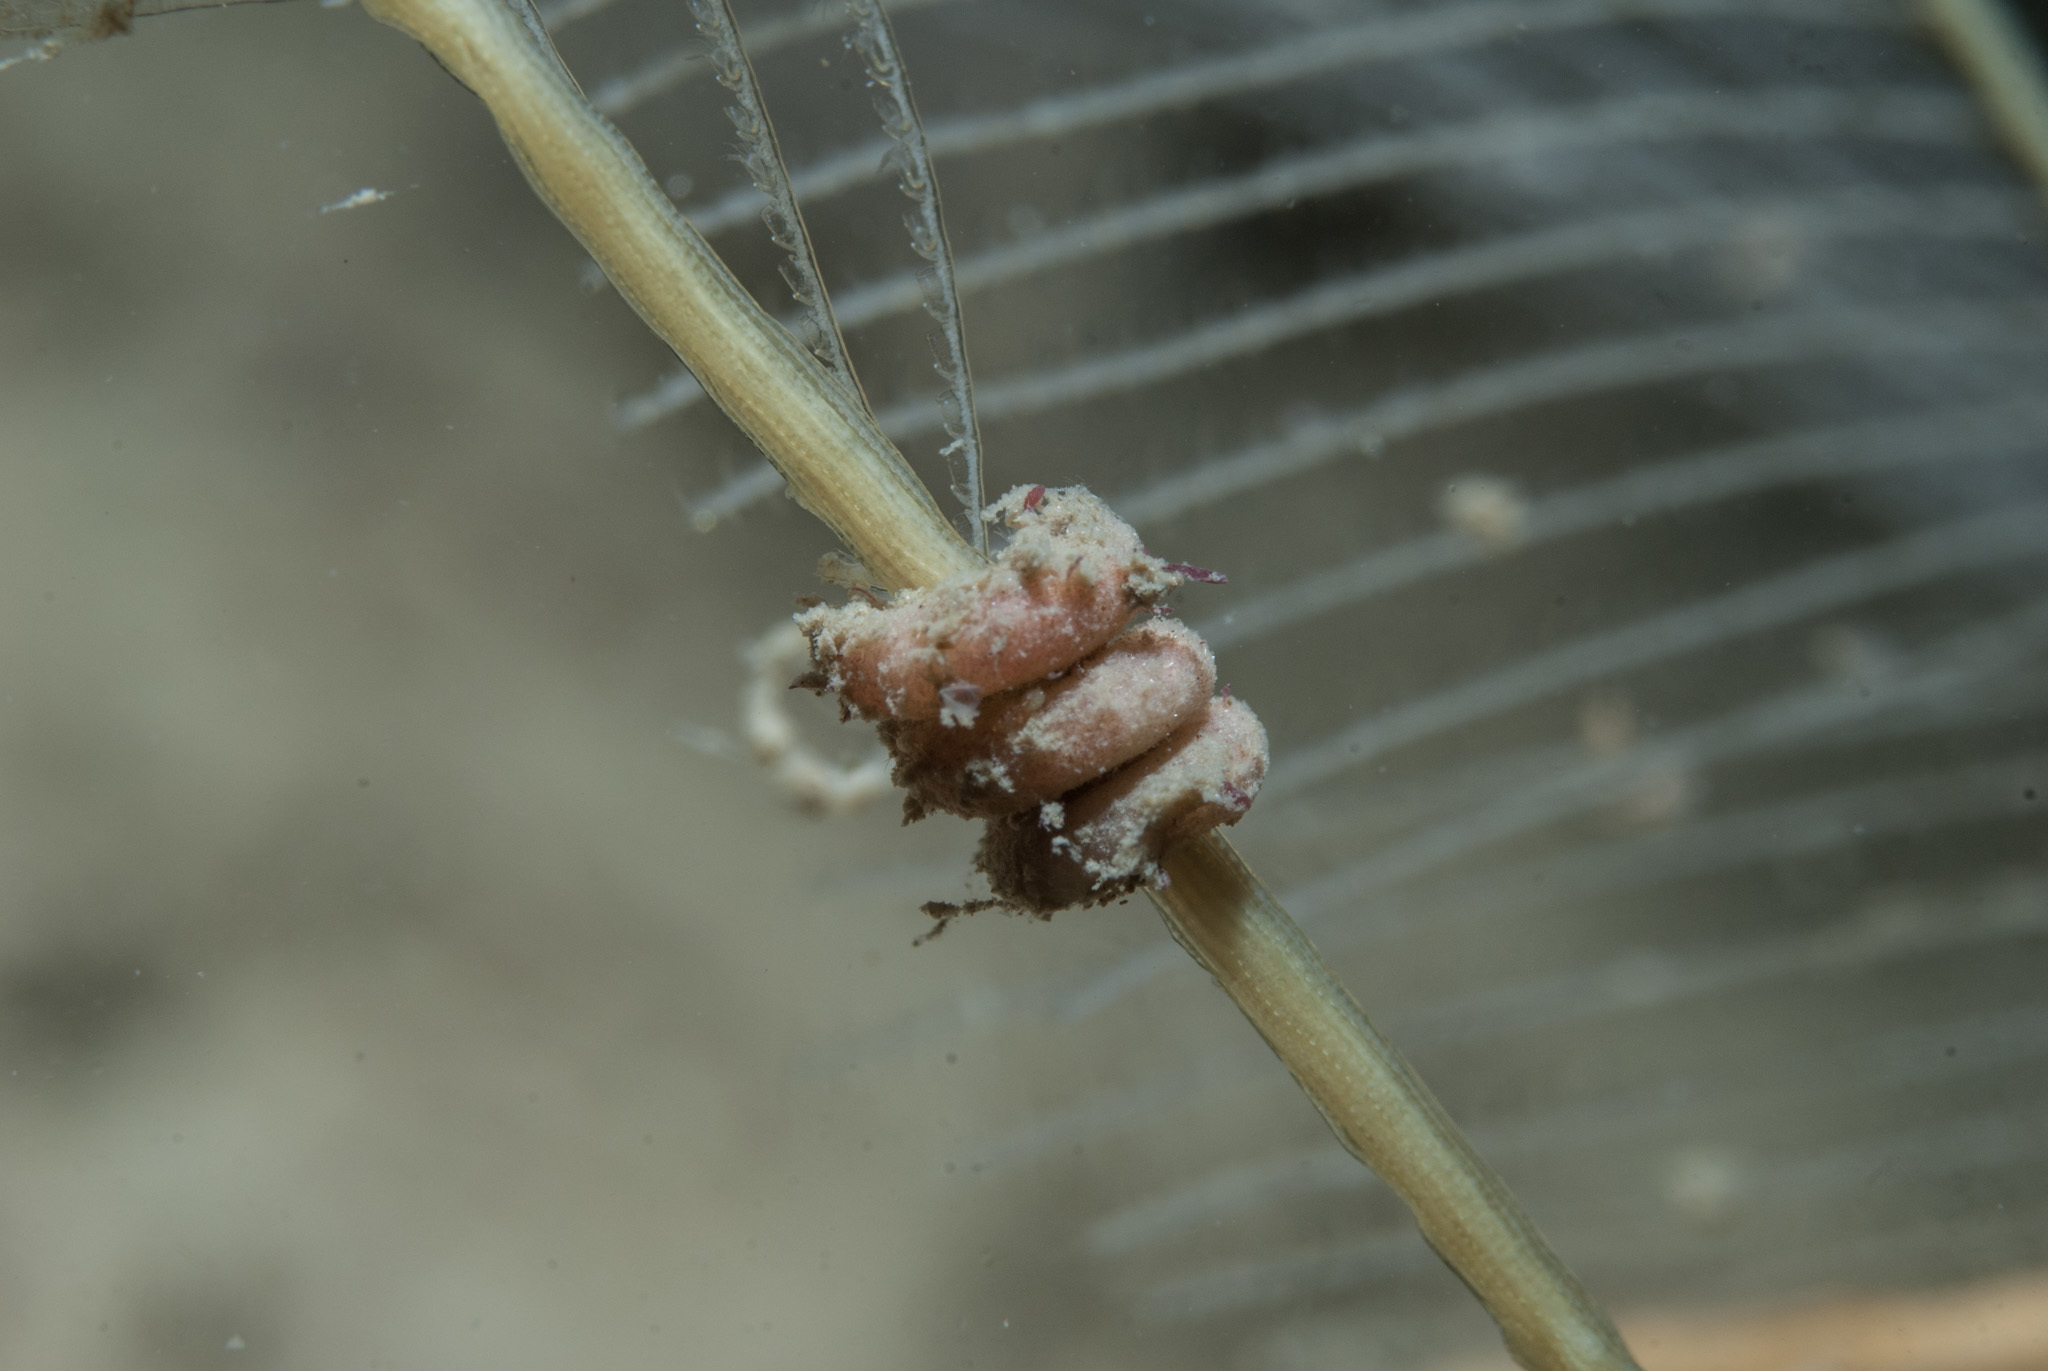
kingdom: Animalia
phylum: Mollusca
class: Solenogastres
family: Rhopalomeniidae
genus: Rhopalomenia
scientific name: Rhopalomenia aglaopheniae
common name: Parasitic solenogaster
